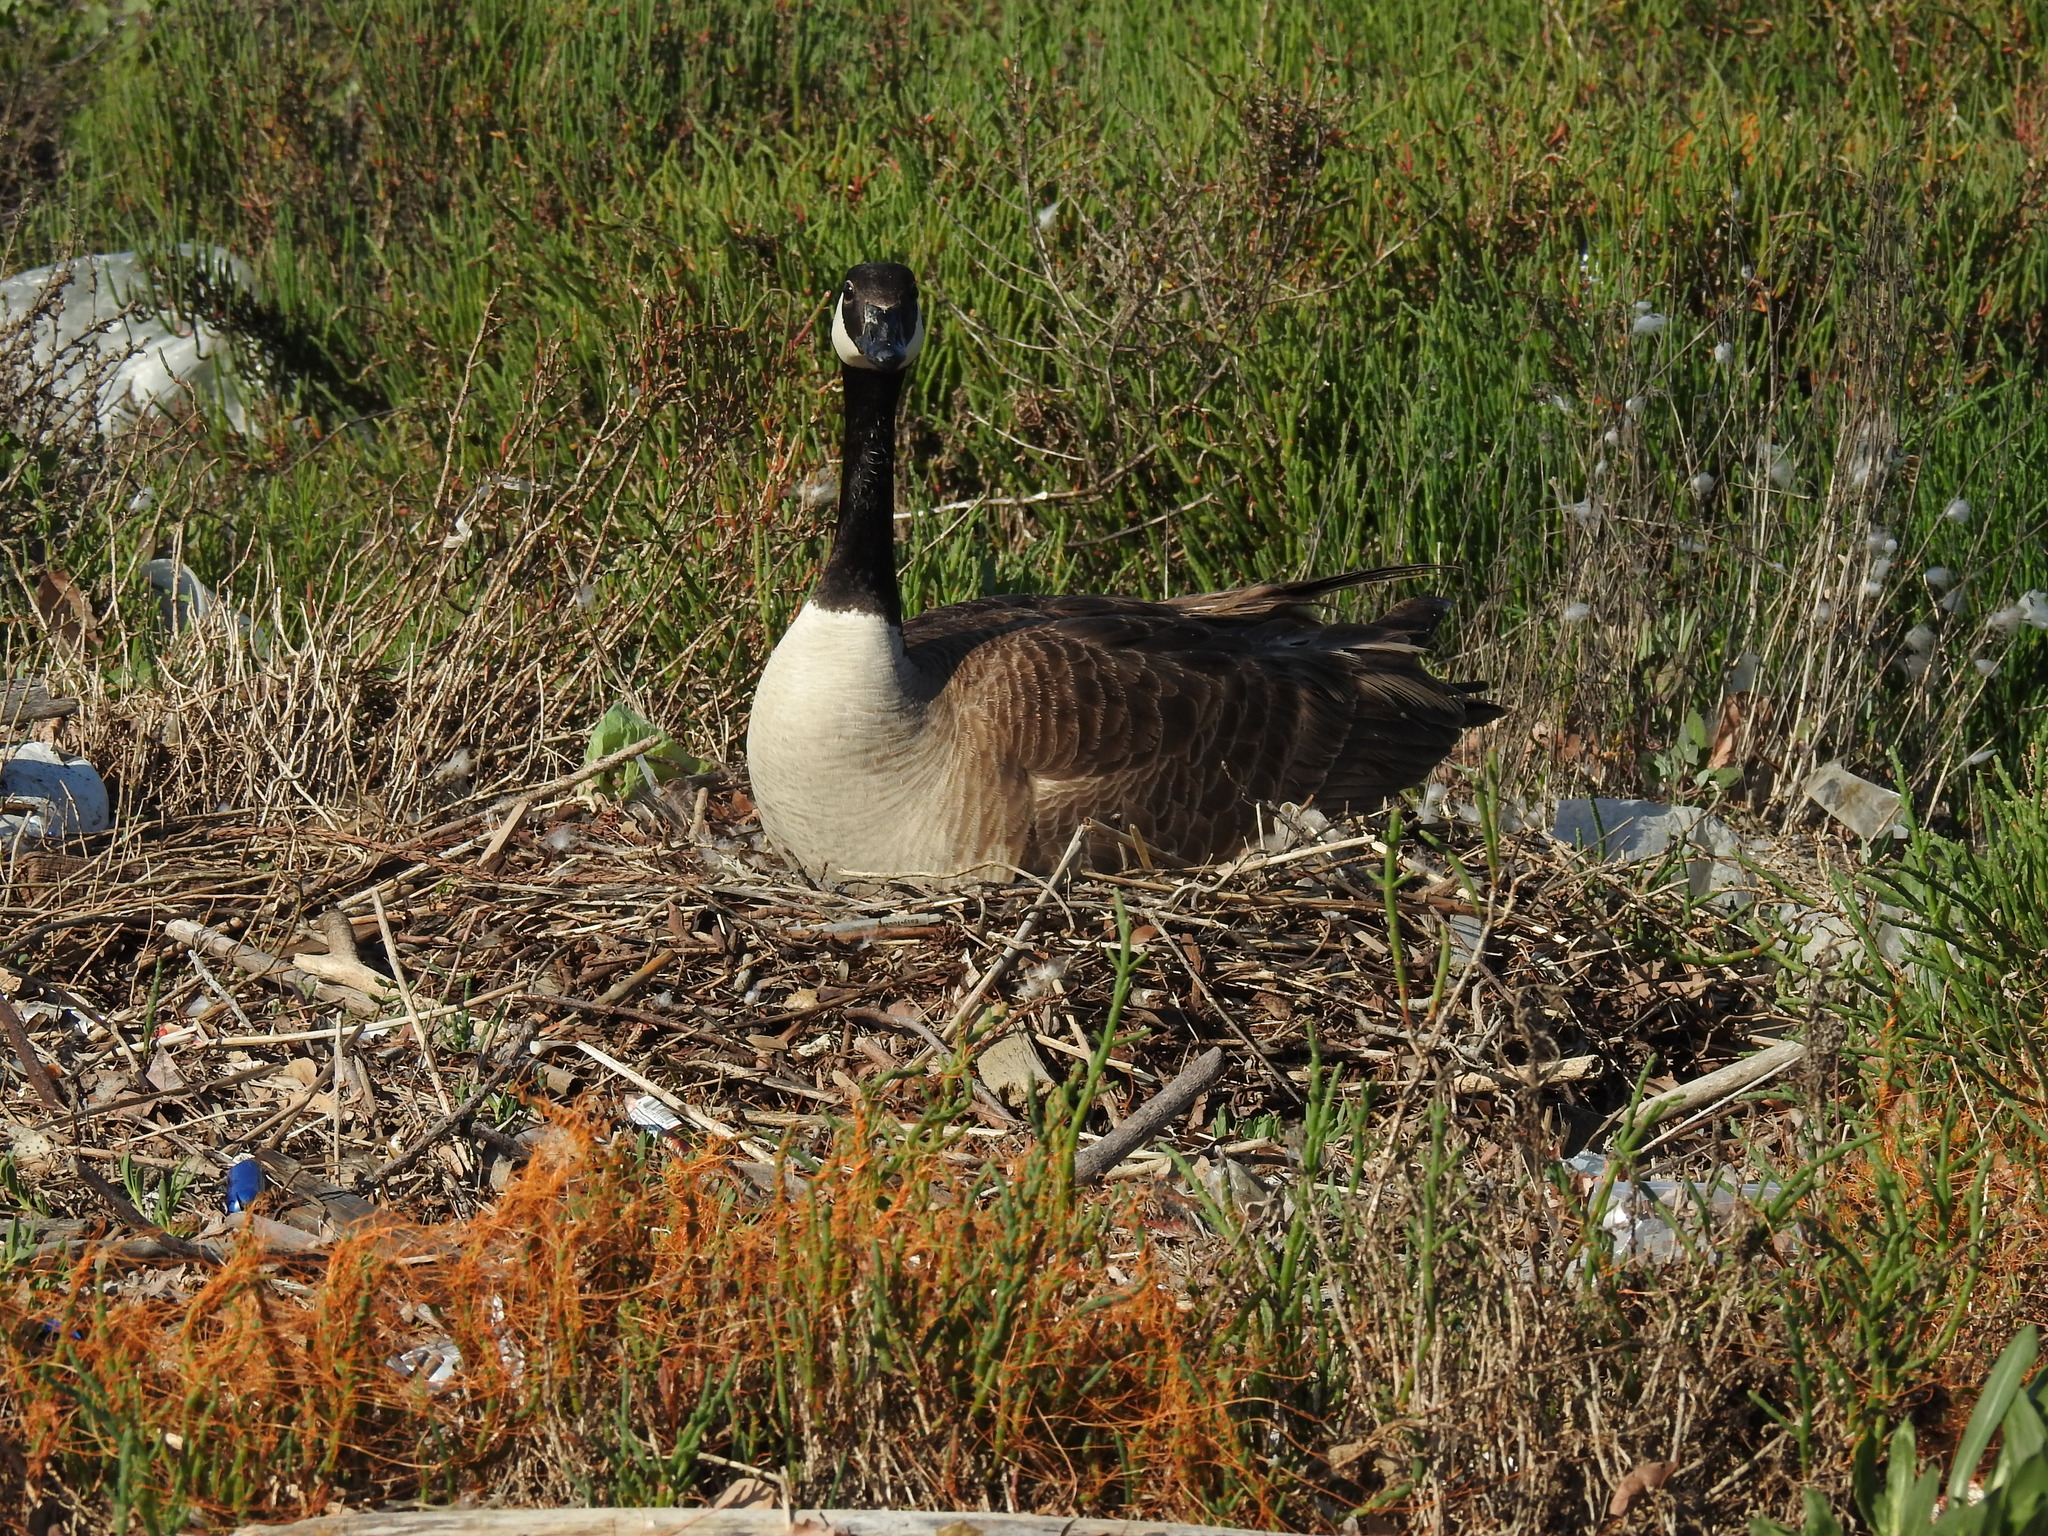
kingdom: Animalia
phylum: Chordata
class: Aves
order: Anseriformes
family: Anatidae
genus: Branta
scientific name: Branta canadensis
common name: Canada goose
